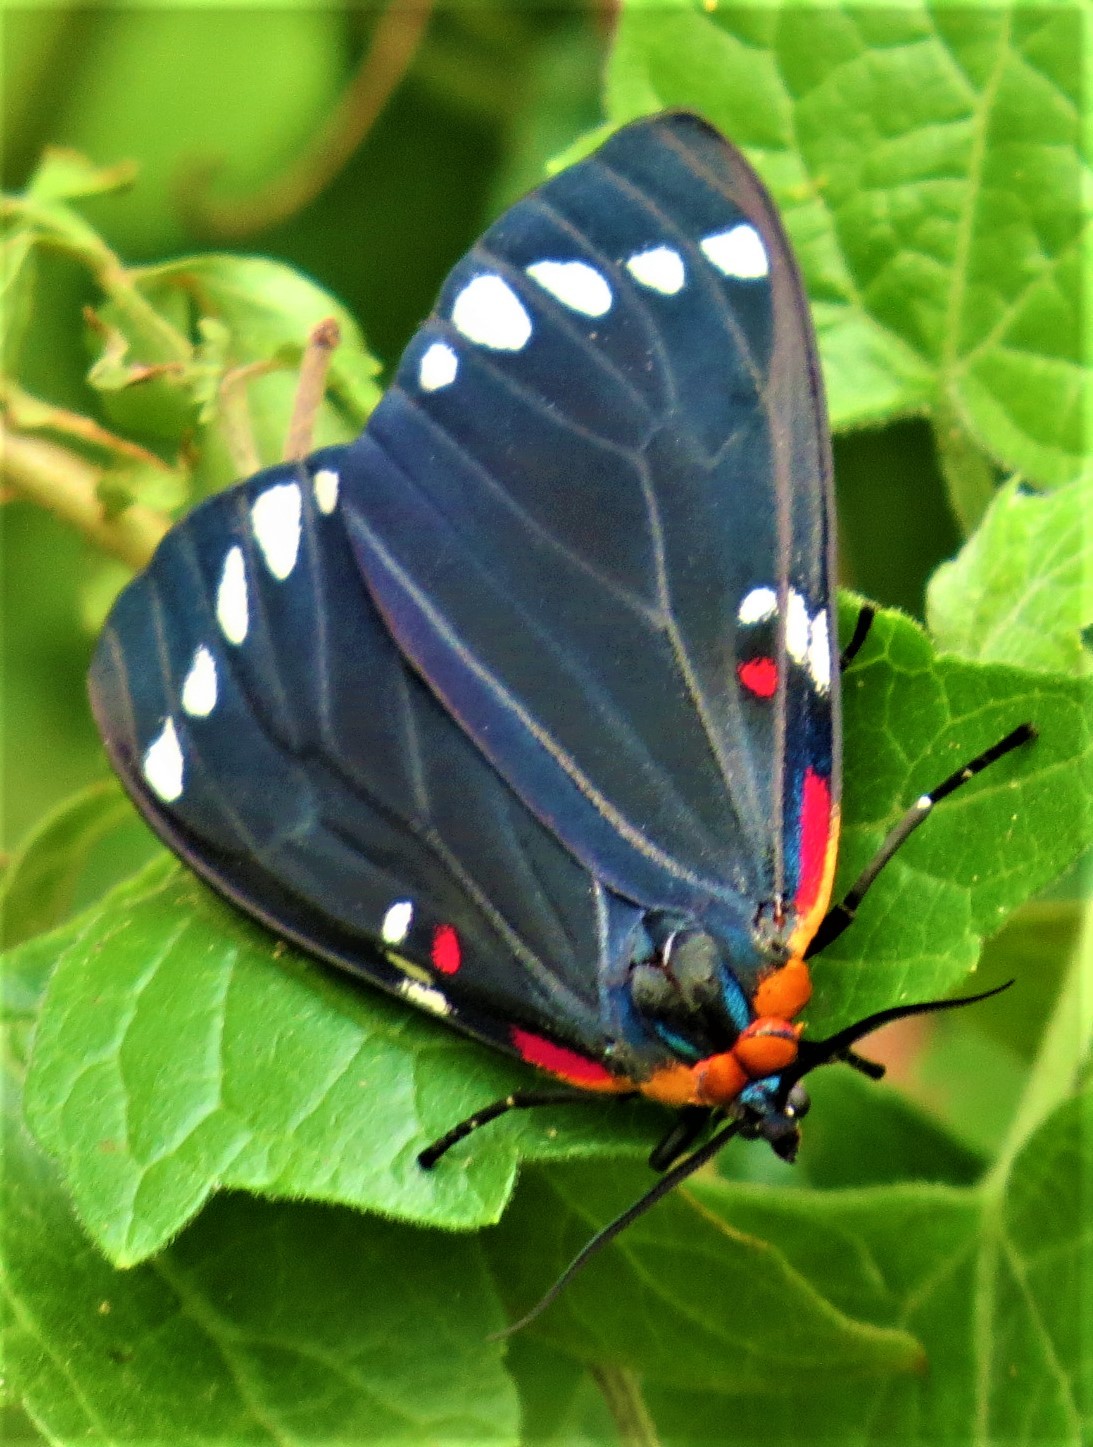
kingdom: Animalia
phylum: Arthropoda
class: Insecta
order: Lepidoptera
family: Erebidae
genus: Phaloesia
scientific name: Phaloesia saucia
